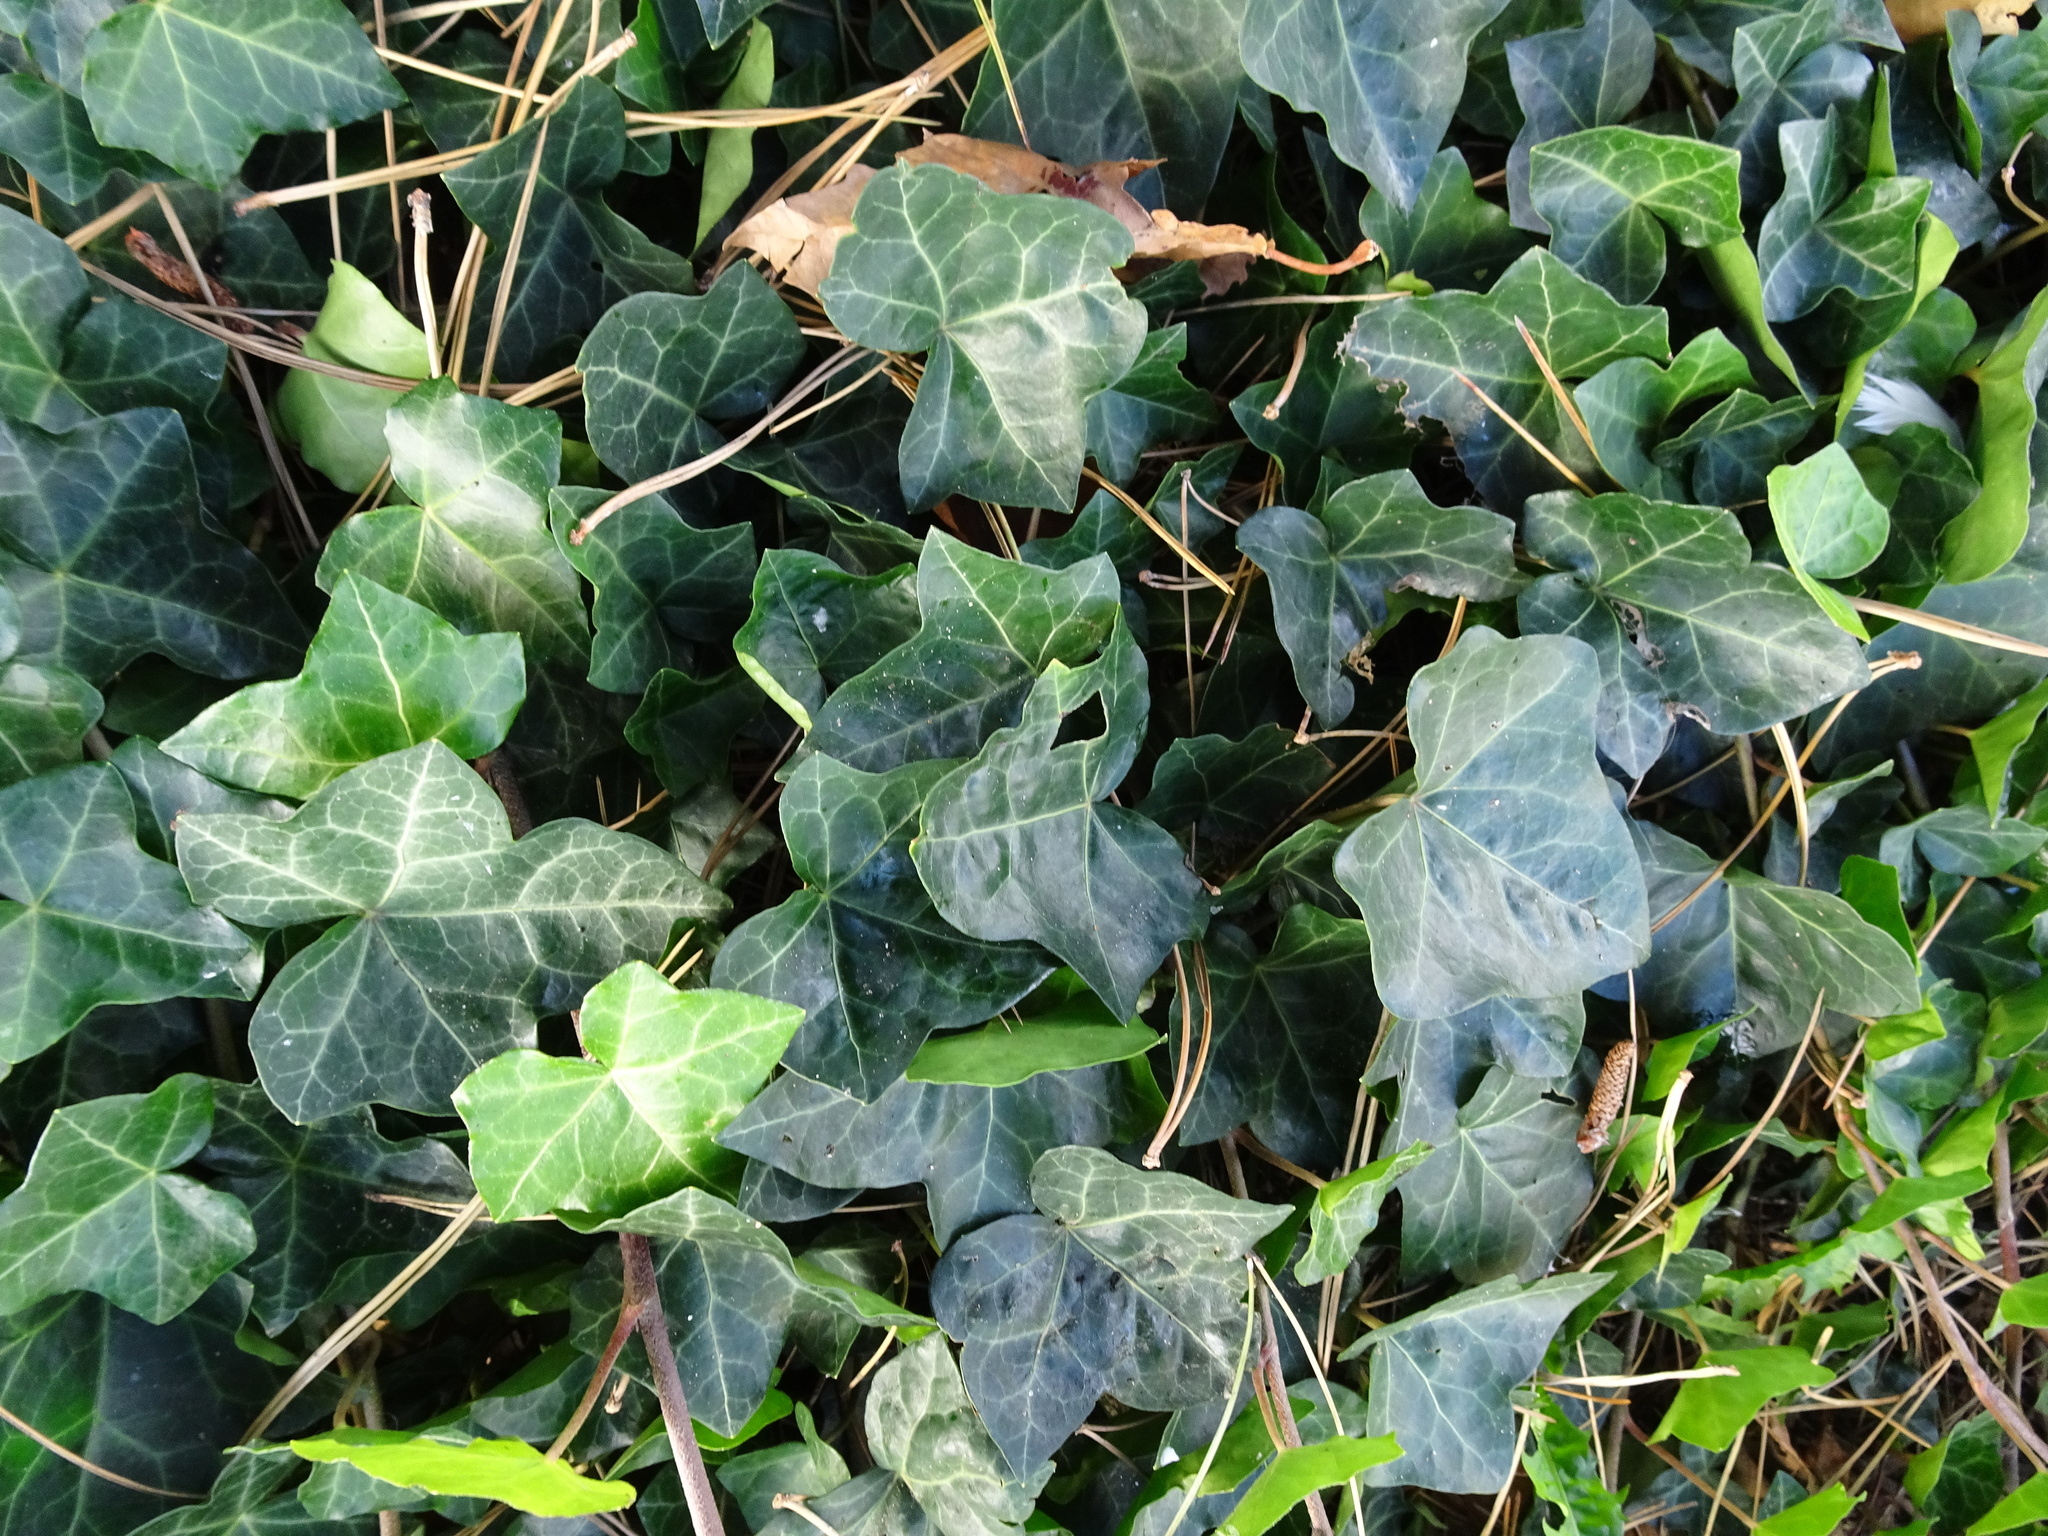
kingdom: Plantae
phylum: Tracheophyta
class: Magnoliopsida
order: Apiales
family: Araliaceae
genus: Hedera
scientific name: Hedera helix
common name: Ivy
